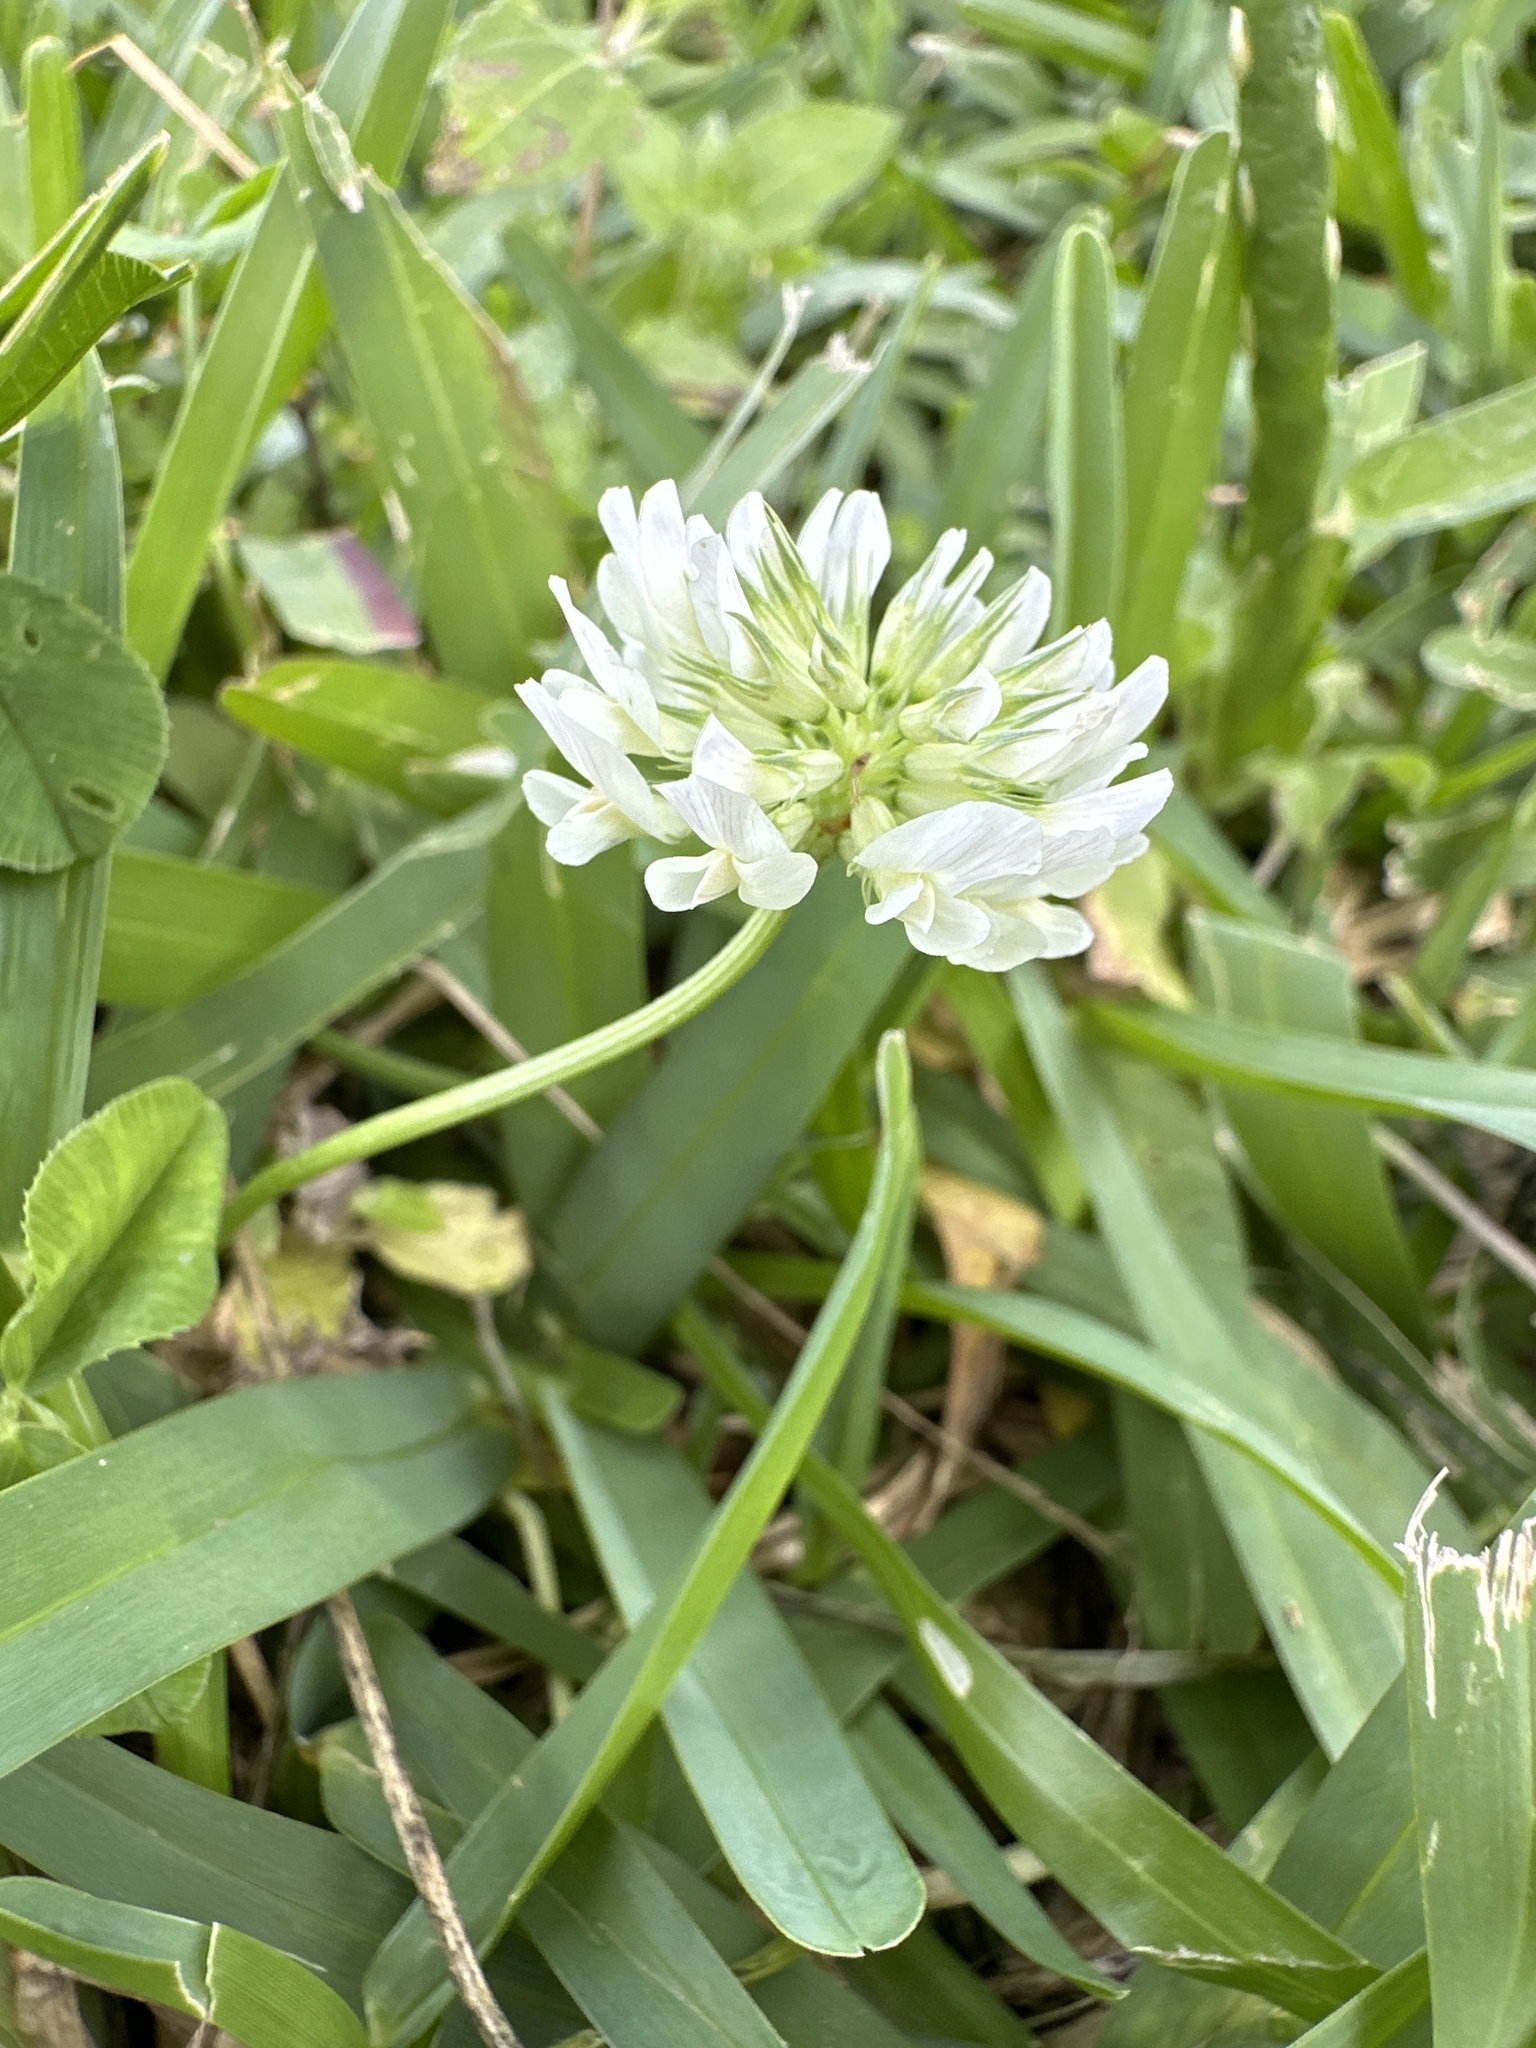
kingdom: Plantae
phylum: Tracheophyta
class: Magnoliopsida
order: Fabales
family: Fabaceae
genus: Trifolium
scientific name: Trifolium repens
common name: White clover
